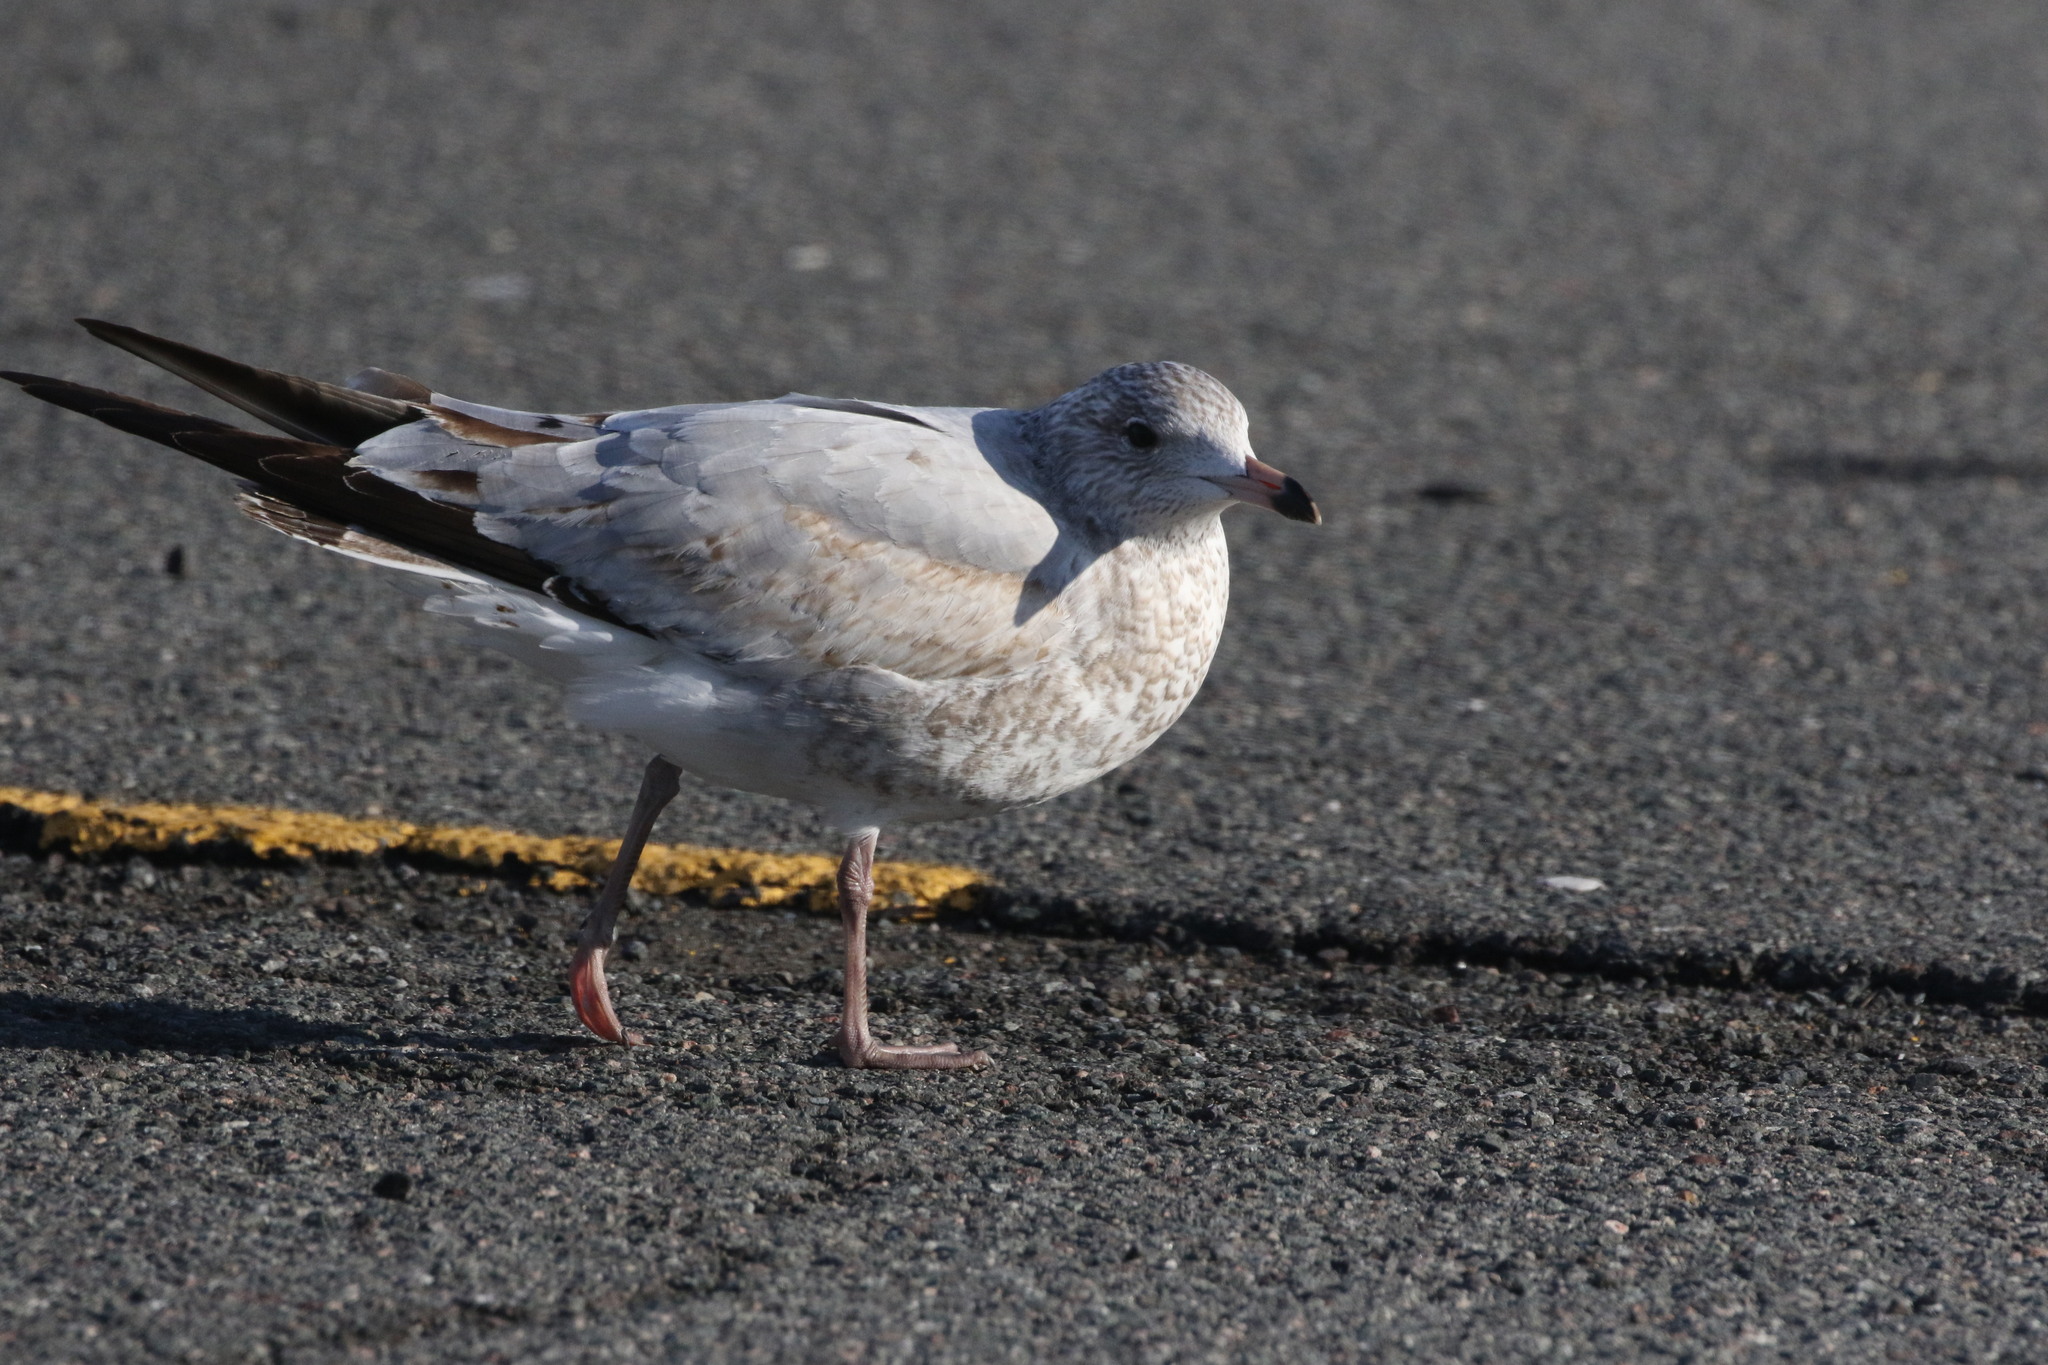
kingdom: Animalia
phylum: Chordata
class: Aves
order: Charadriiformes
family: Laridae
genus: Larus
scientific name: Larus delawarensis
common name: Ring-billed gull
